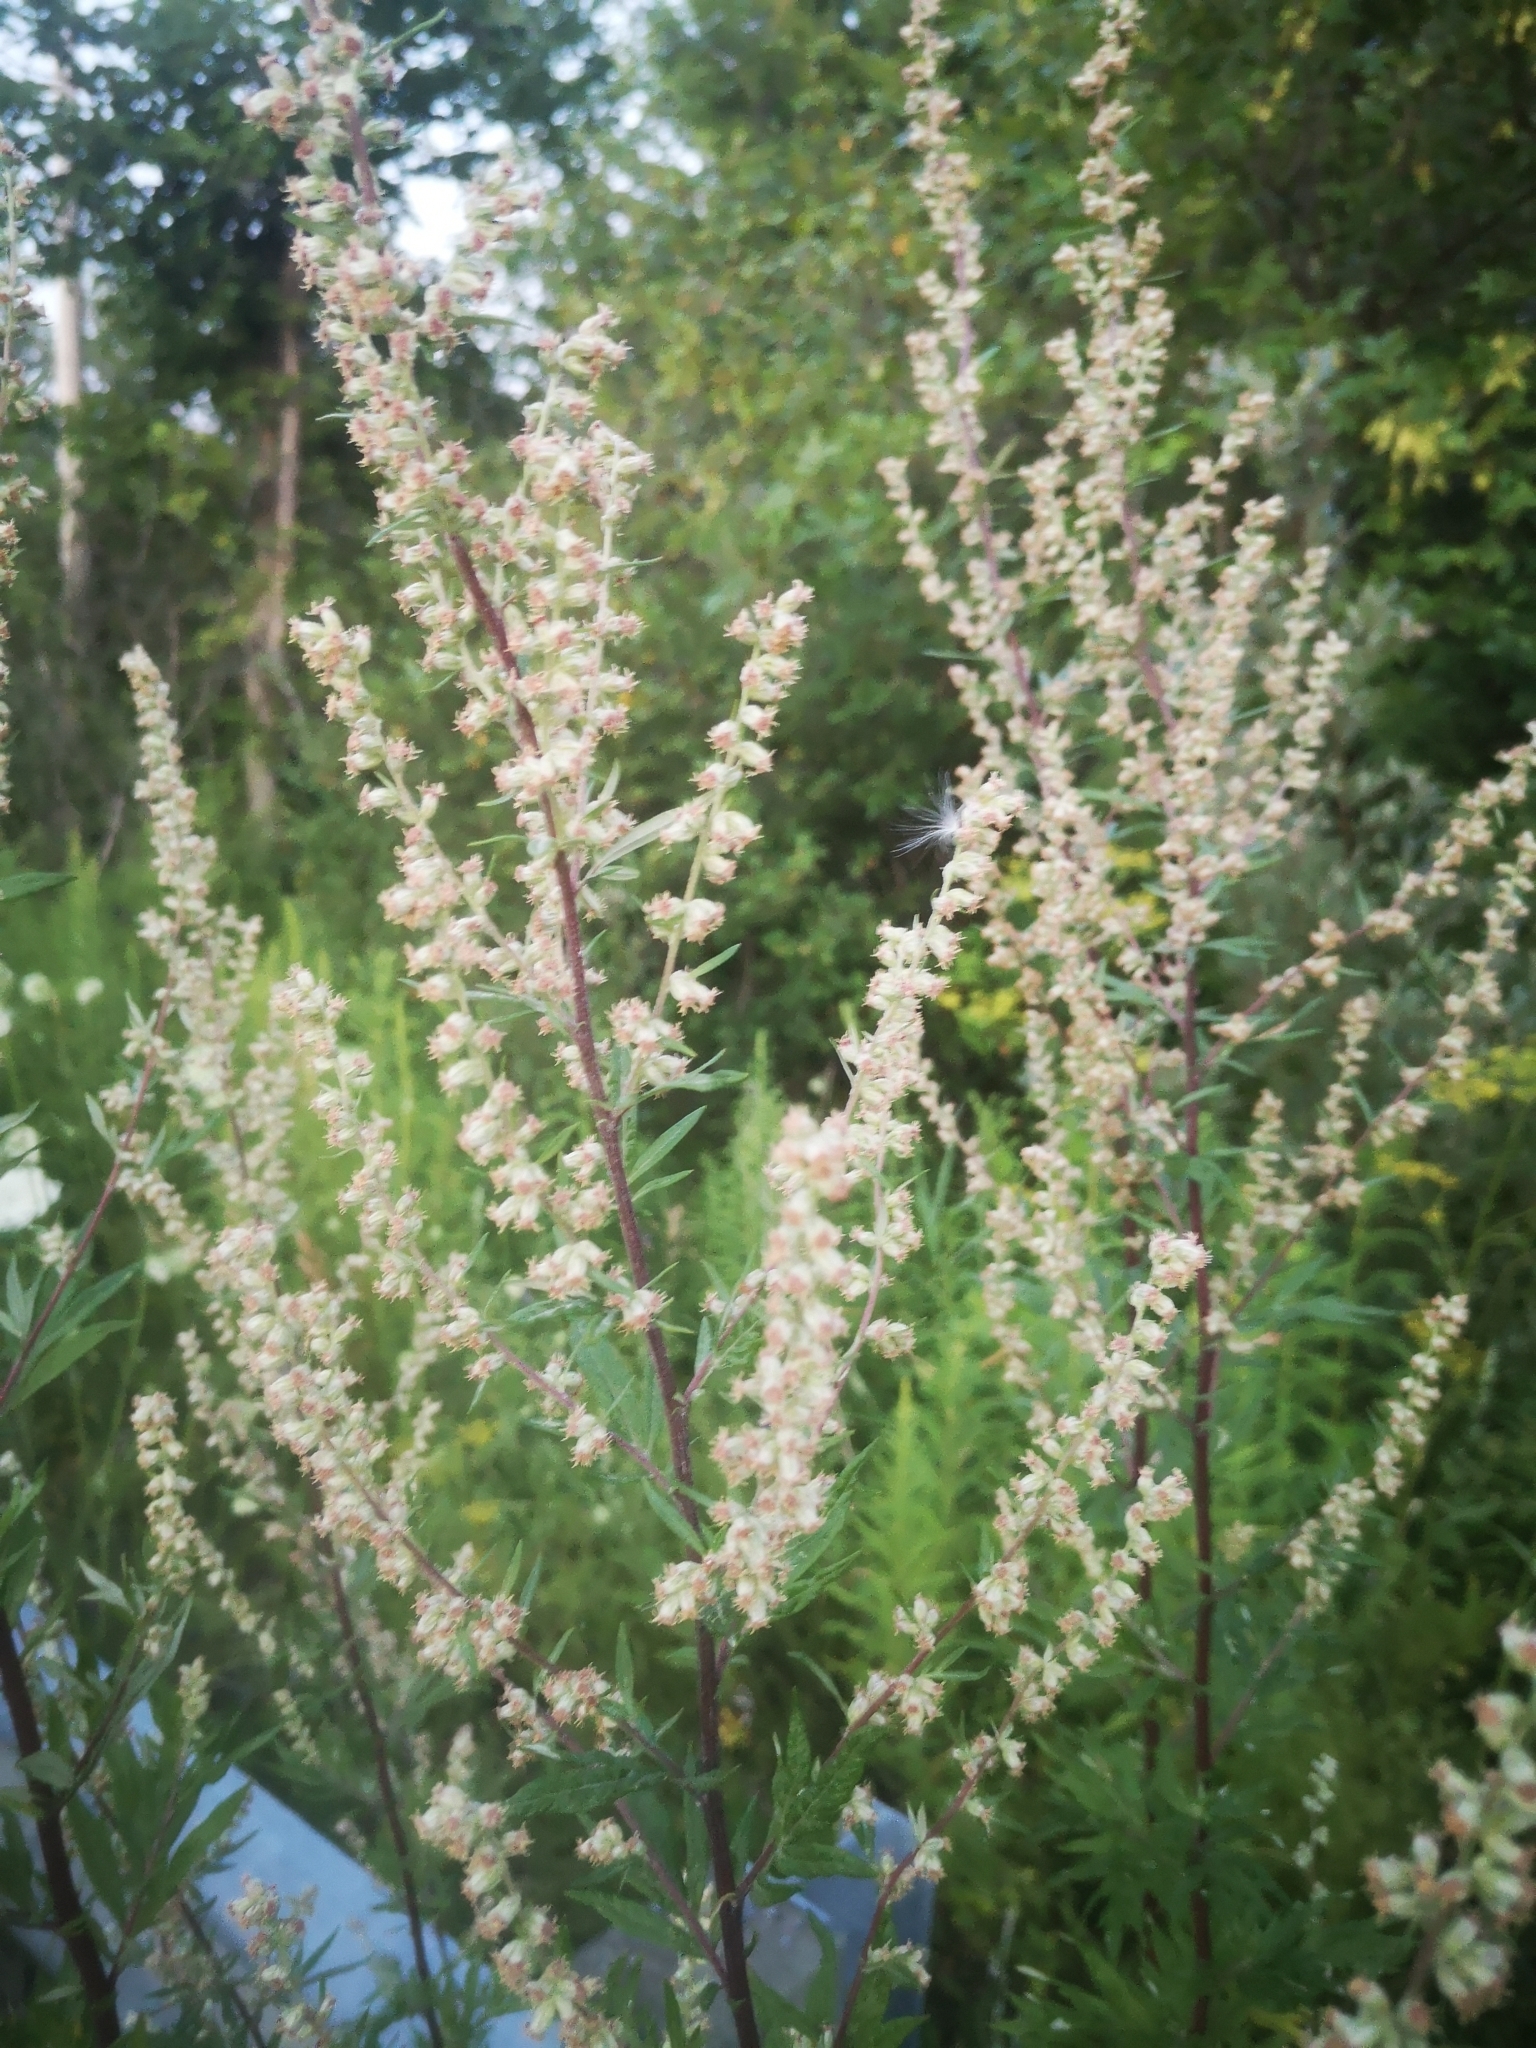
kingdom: Plantae
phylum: Tracheophyta
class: Magnoliopsida
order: Asterales
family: Asteraceae
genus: Artemisia
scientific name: Artemisia vulgaris
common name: Mugwort
